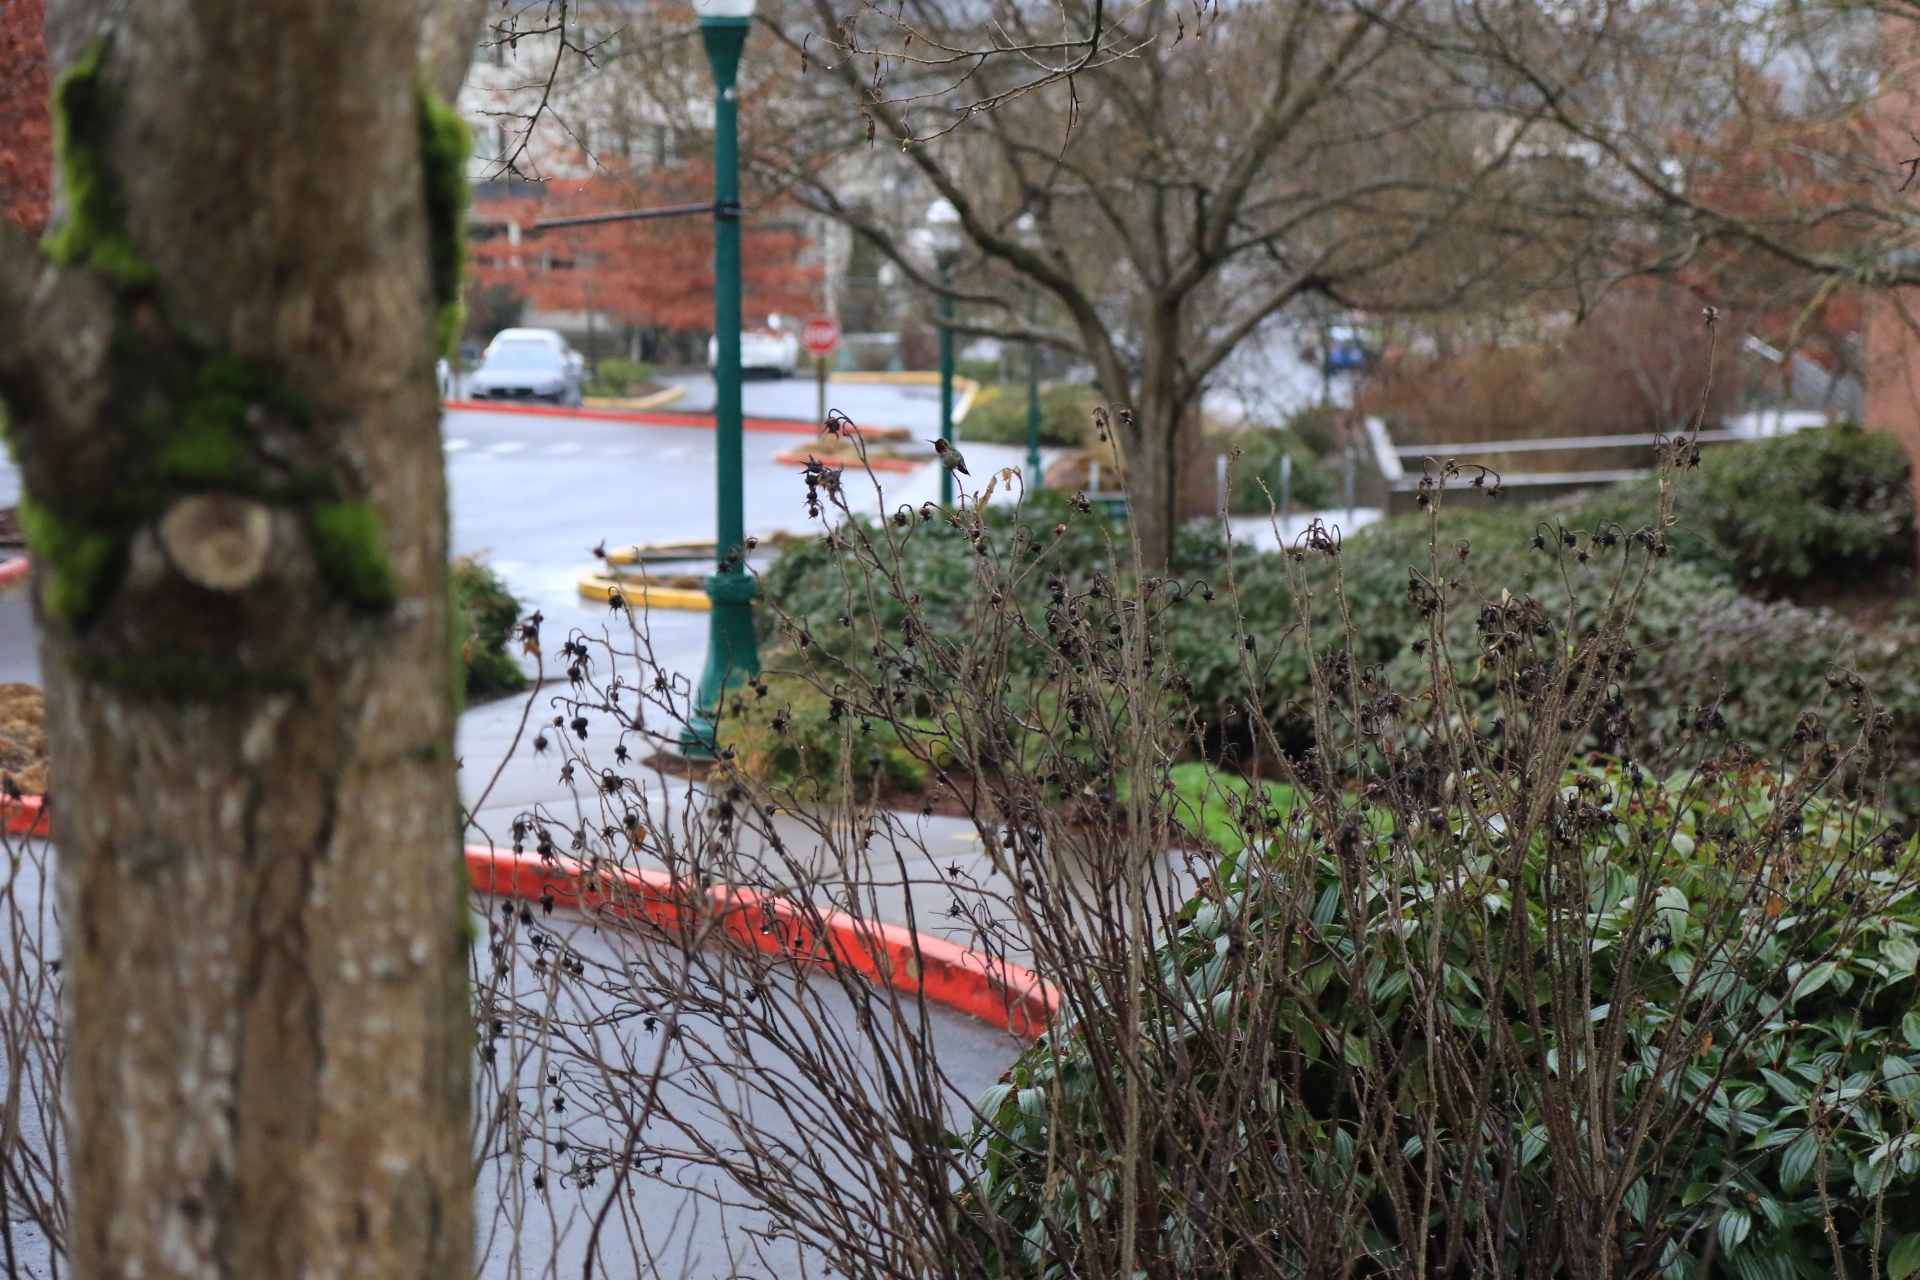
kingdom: Animalia
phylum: Chordata
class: Aves
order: Apodiformes
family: Trochilidae
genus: Calypte
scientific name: Calypte anna
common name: Anna's hummingbird
